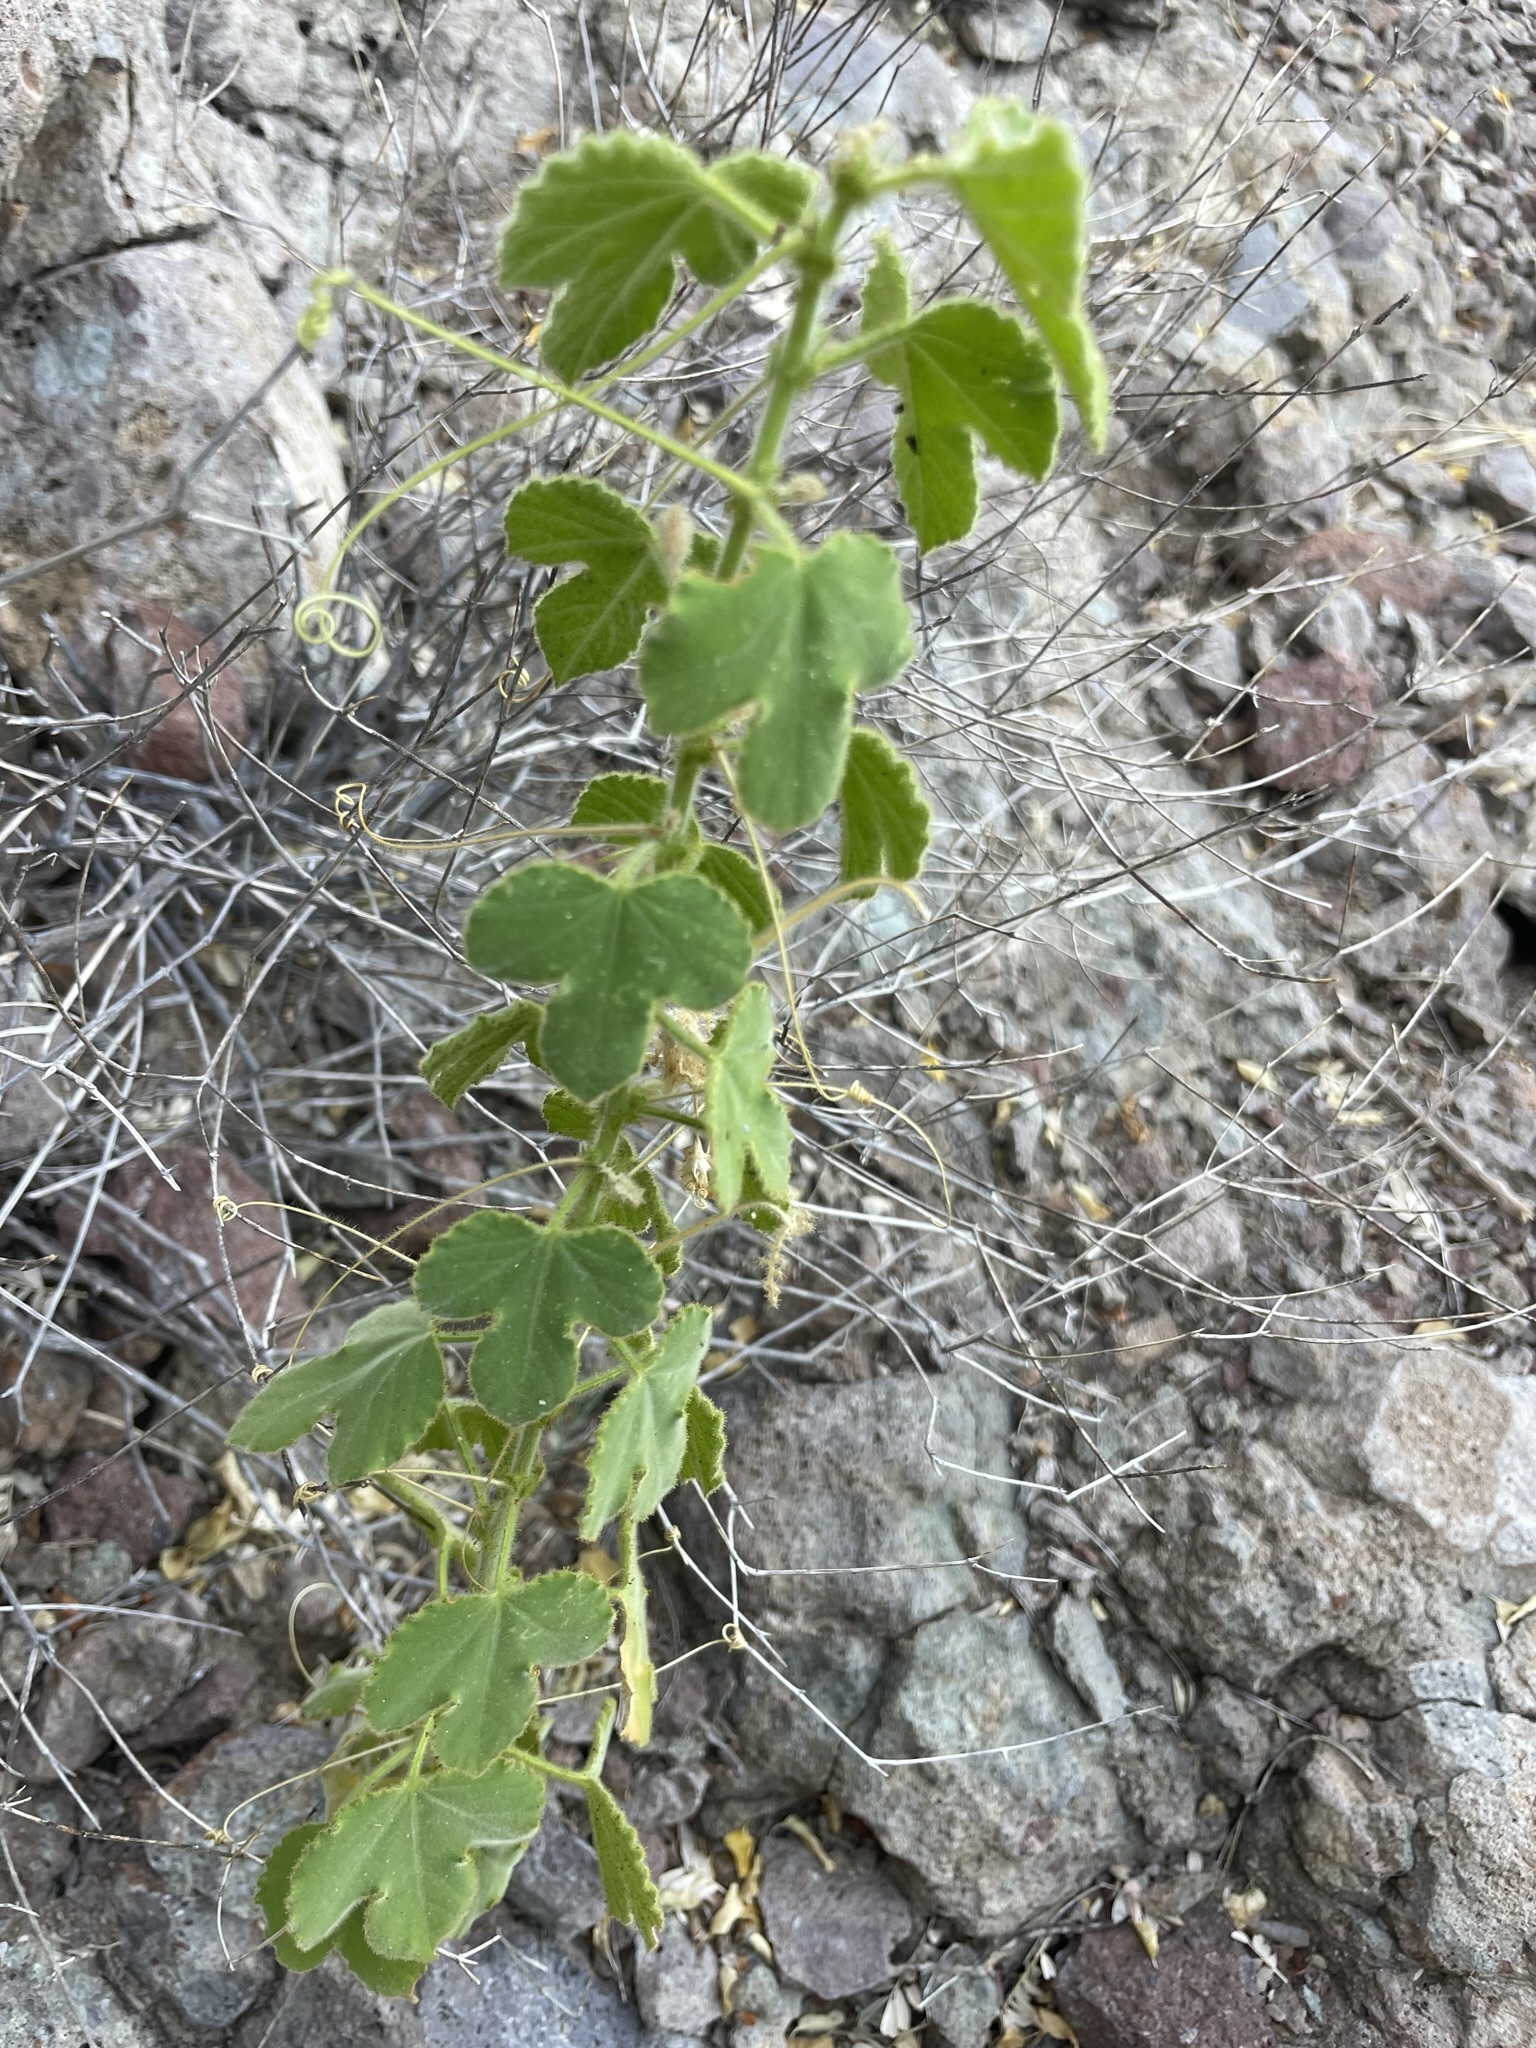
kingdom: Plantae
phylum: Tracheophyta
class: Magnoliopsida
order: Malpighiales
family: Passifloraceae
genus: Passiflora
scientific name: Passiflora palmeri
